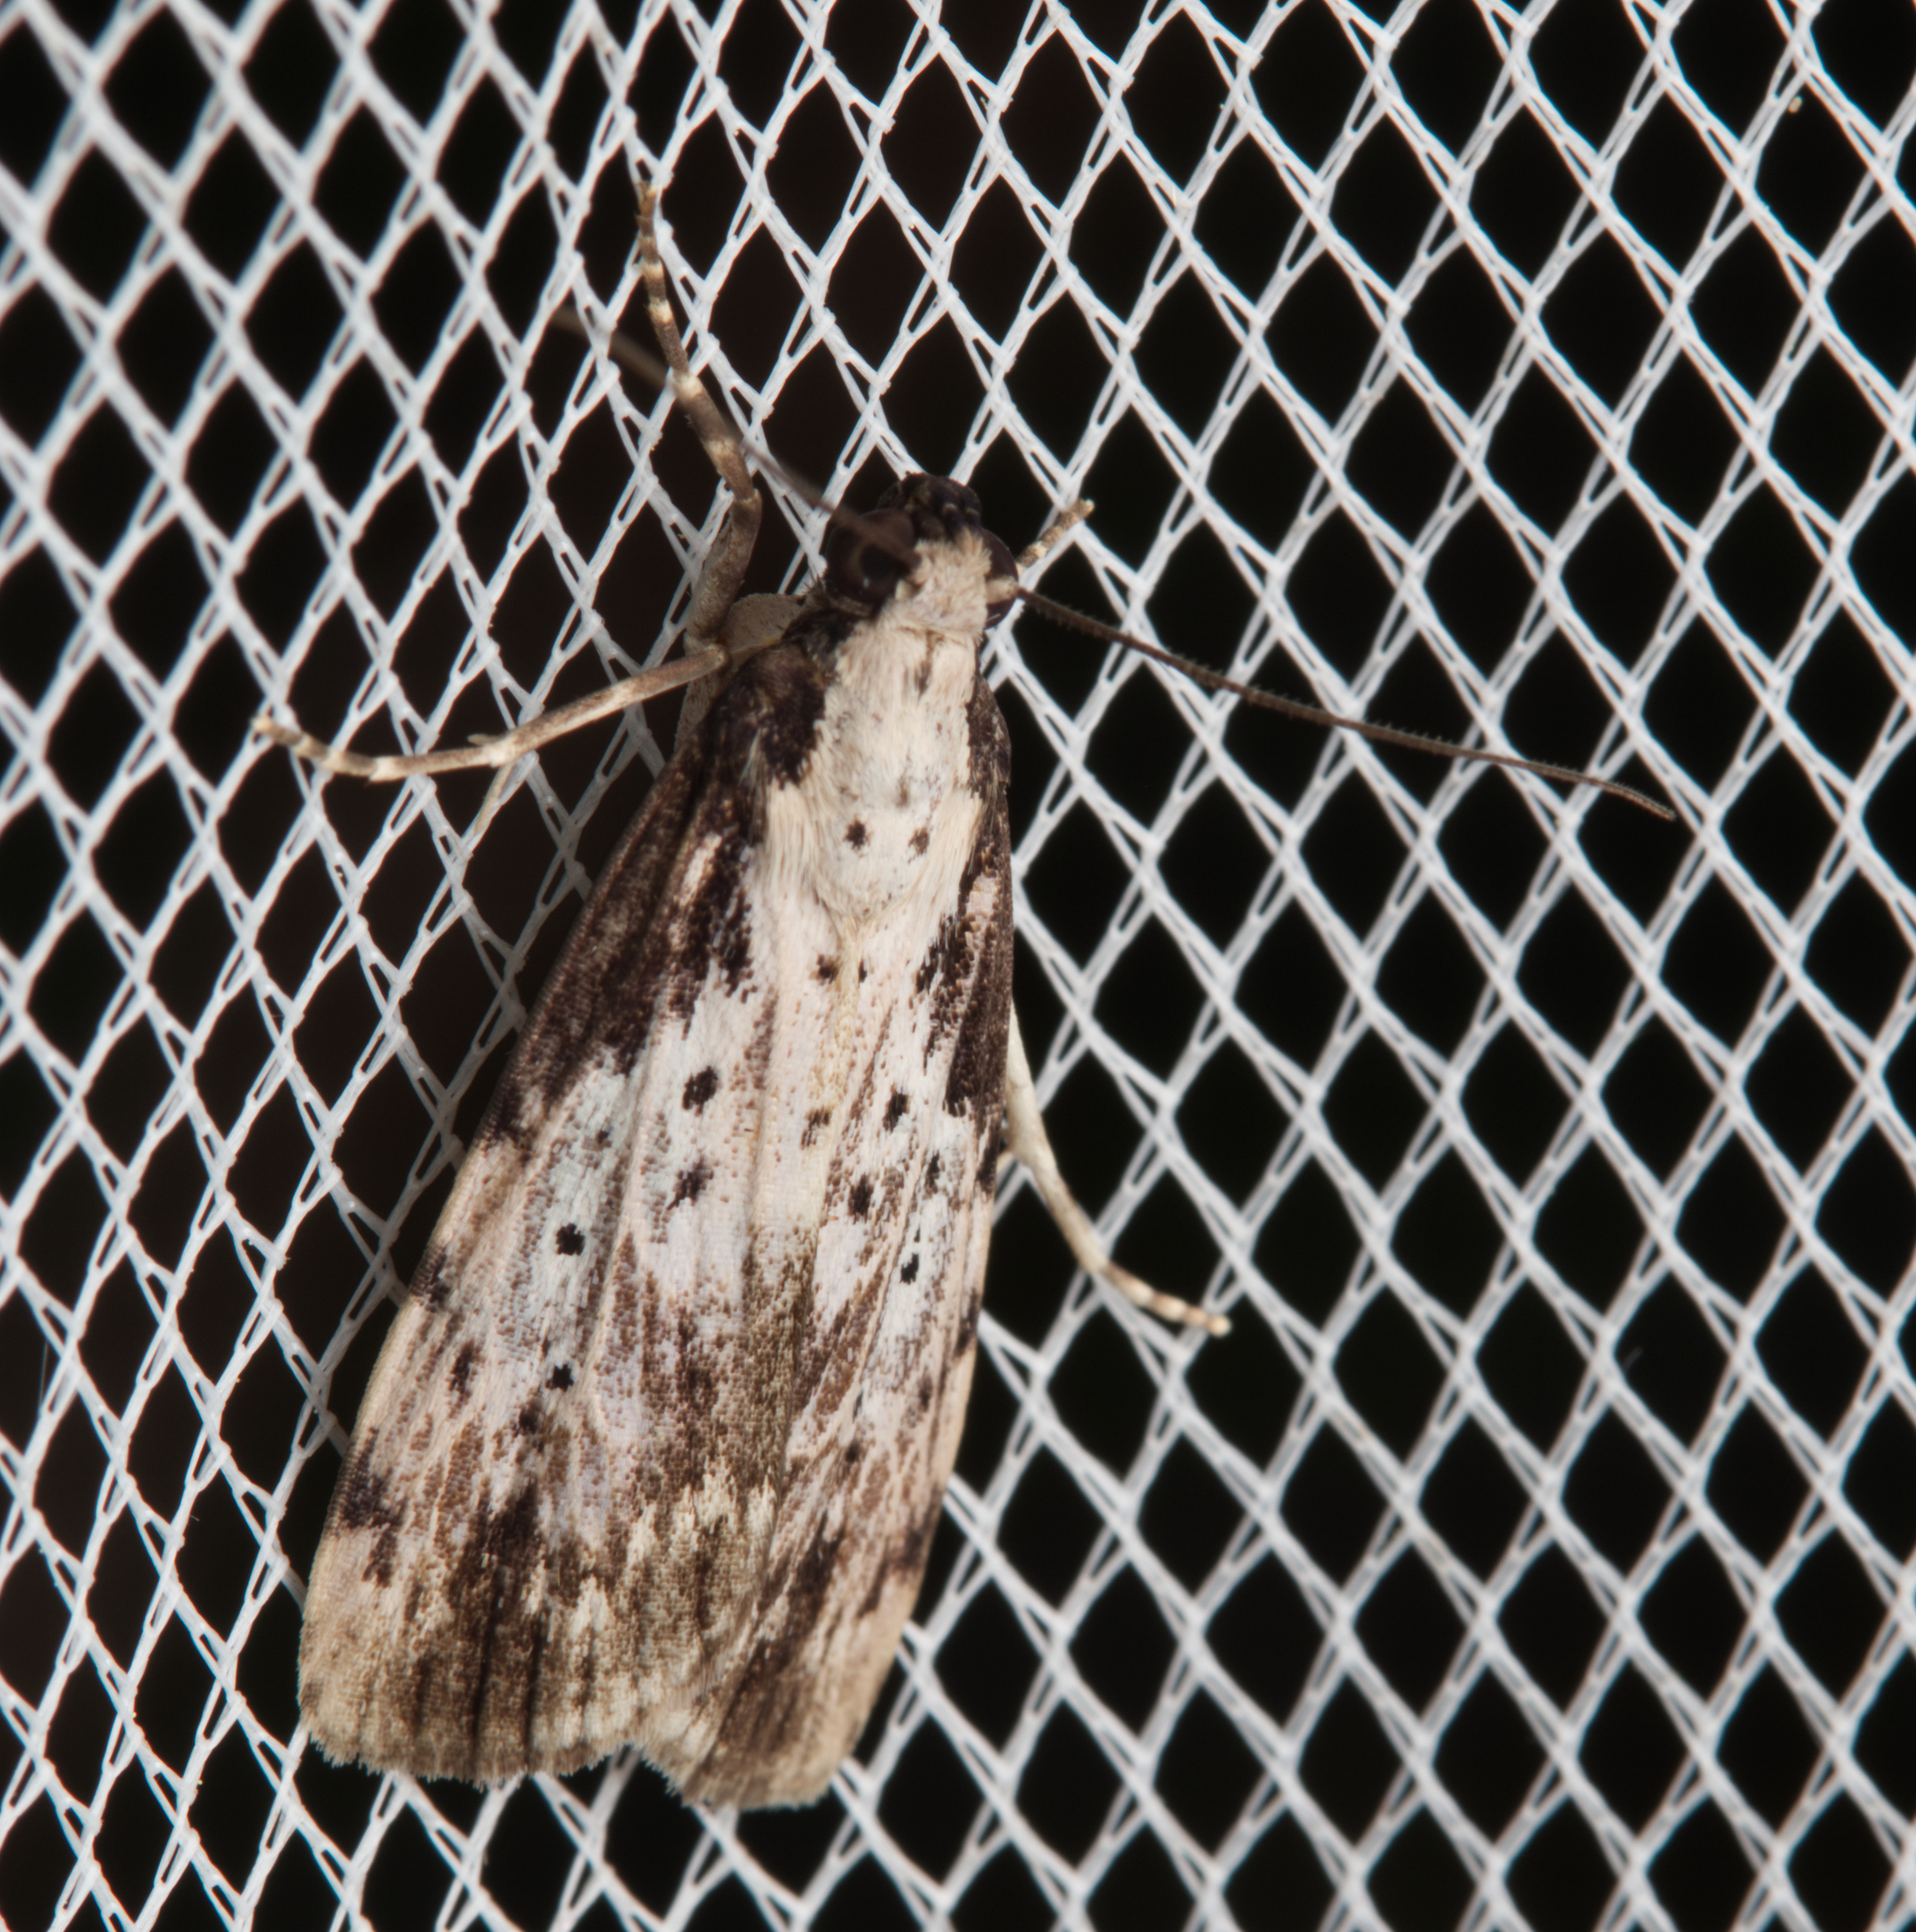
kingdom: Animalia
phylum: Arthropoda
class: Insecta
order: Lepidoptera
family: Erebidae
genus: Digama
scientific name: Digama Sommeria marmorea
